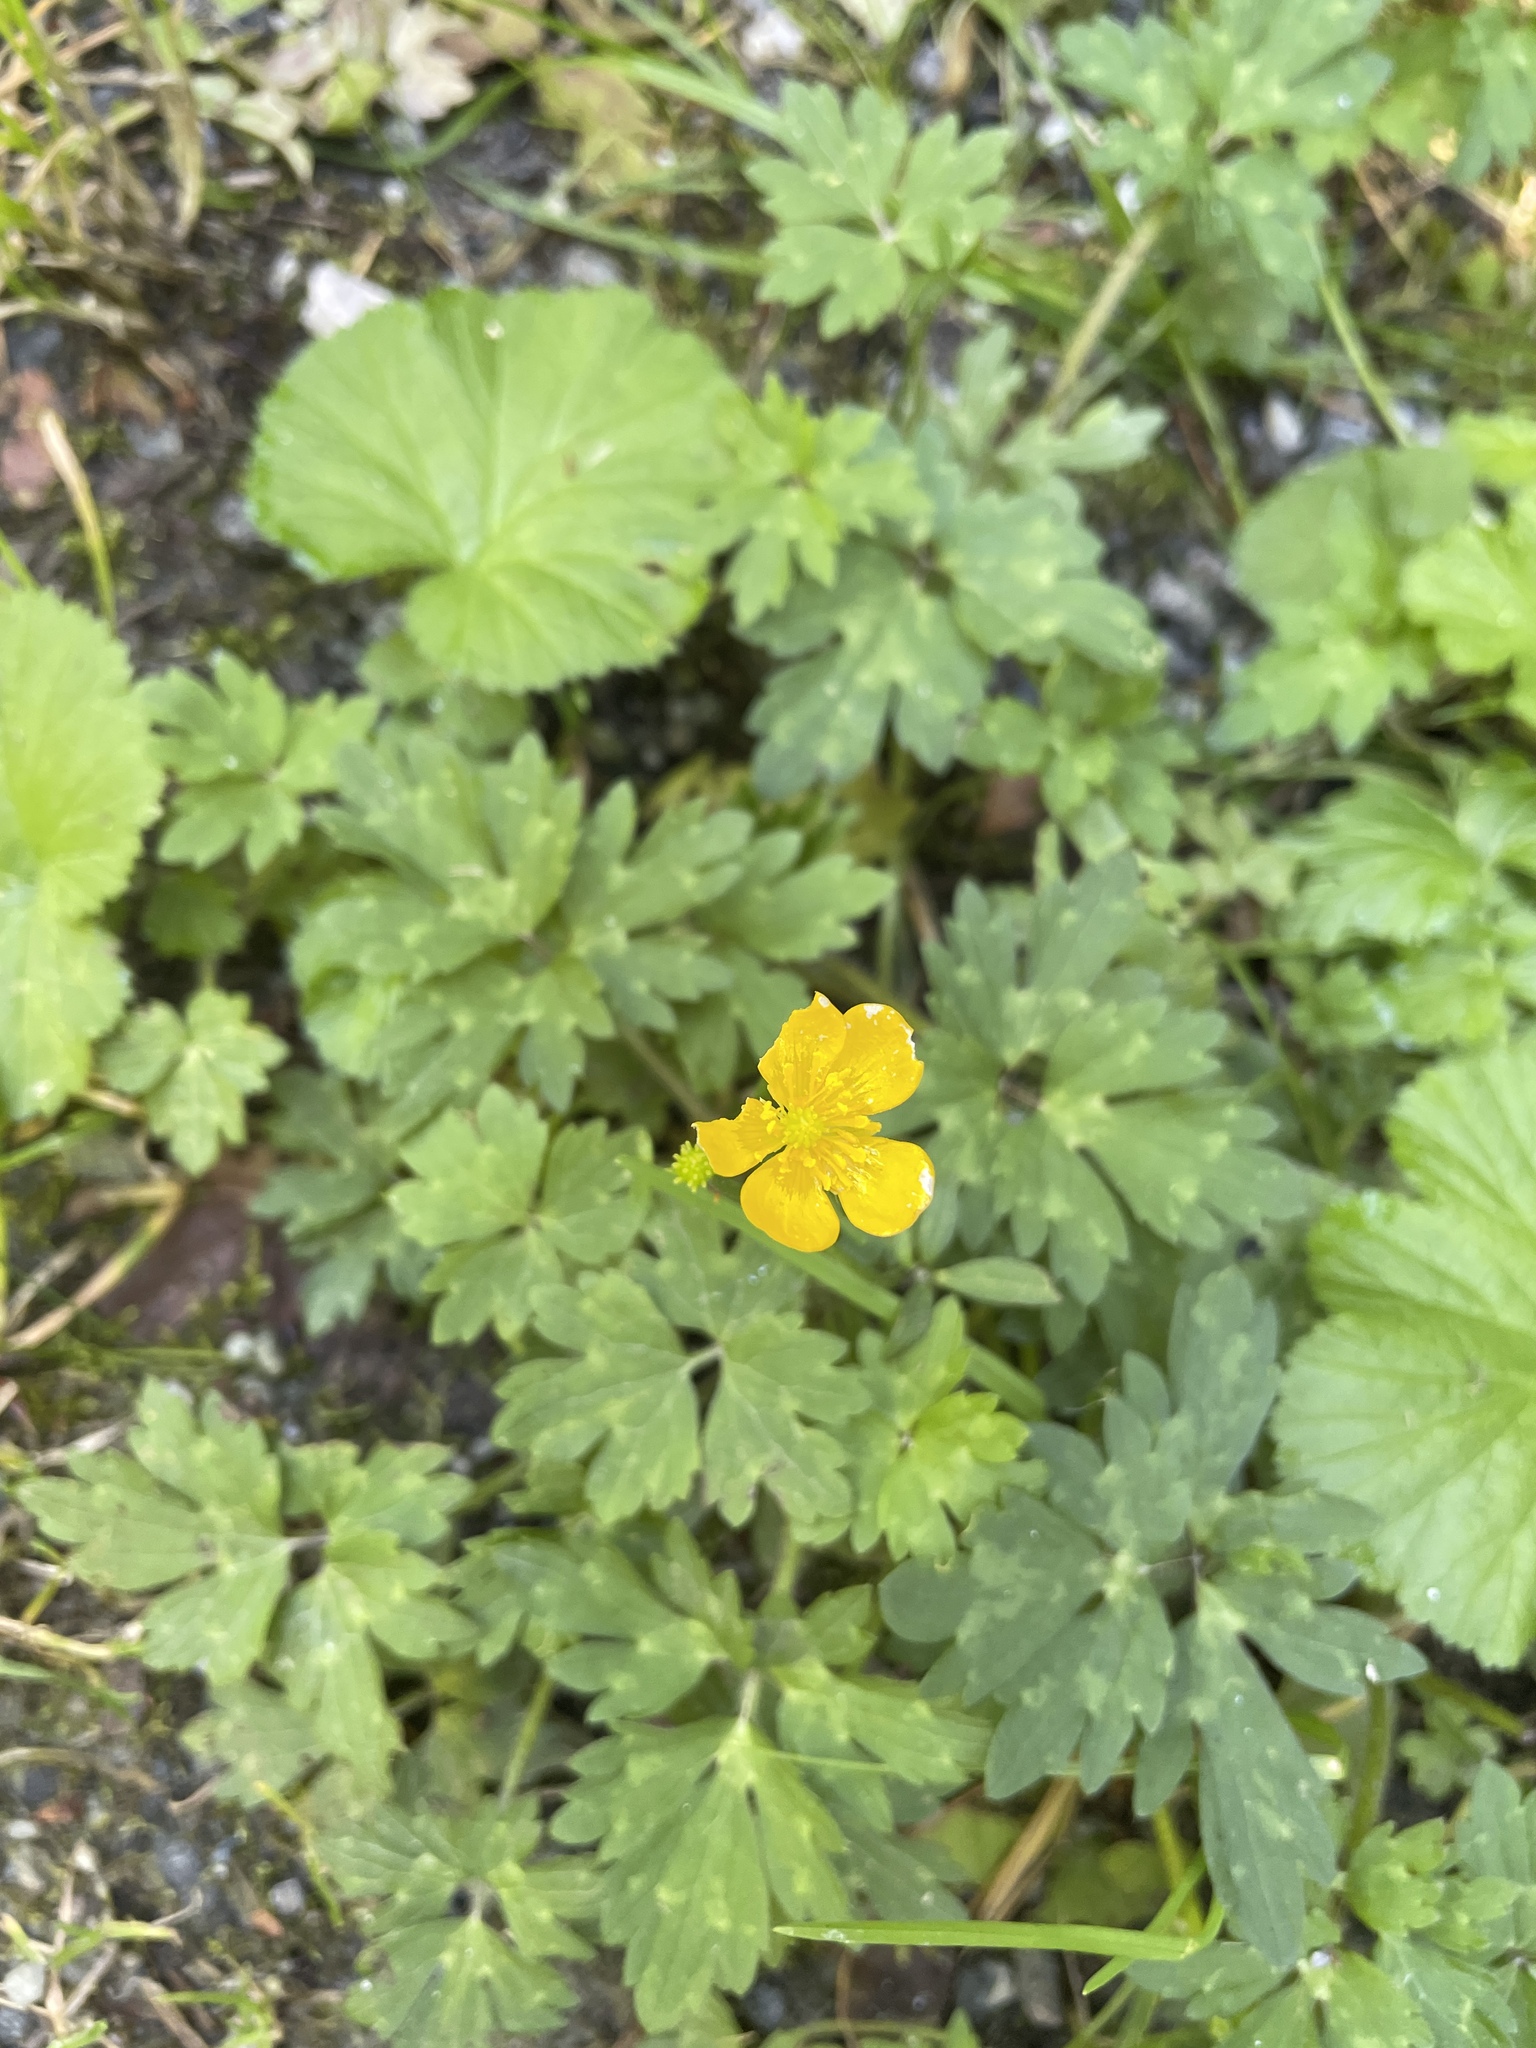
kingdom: Plantae
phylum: Tracheophyta
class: Magnoliopsida
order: Ranunculales
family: Ranunculaceae
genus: Ranunculus
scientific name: Ranunculus repens
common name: Creeping buttercup
